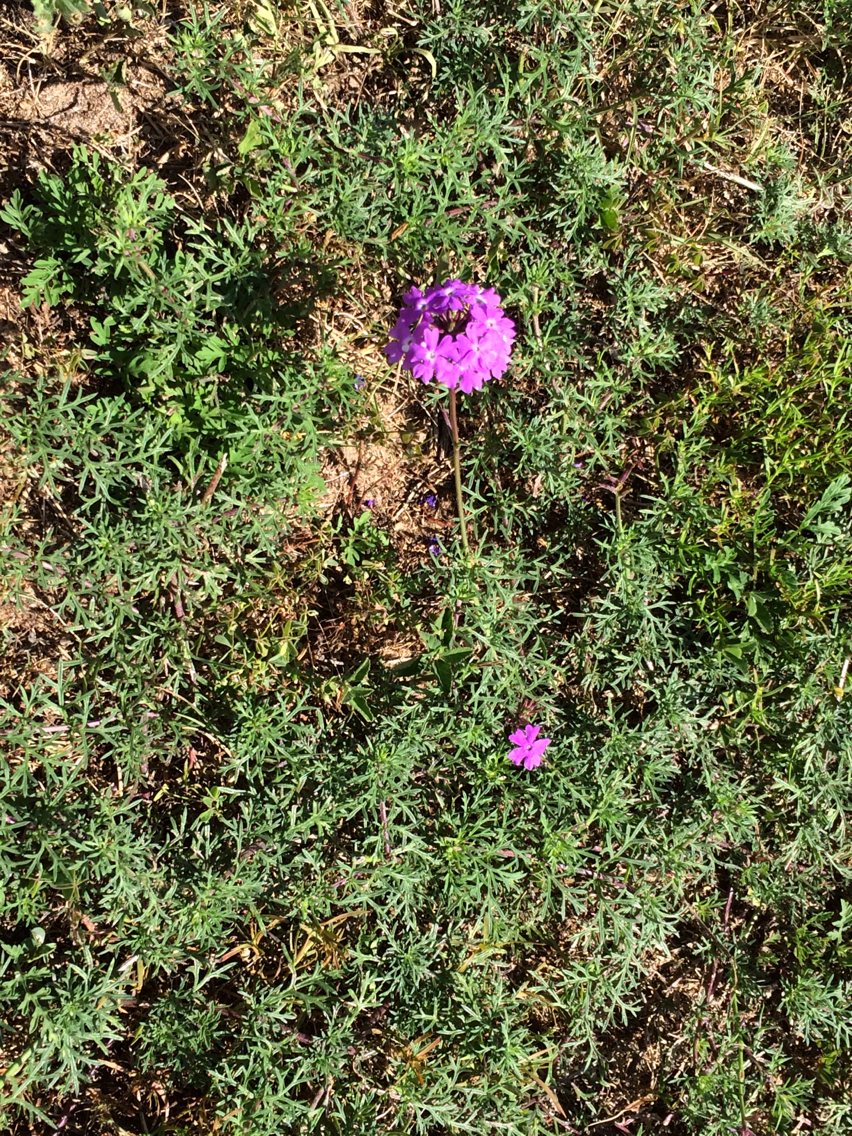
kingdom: Plantae
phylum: Tracheophyta
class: Magnoliopsida
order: Lamiales
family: Verbenaceae
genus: Verbena
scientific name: Verbena
